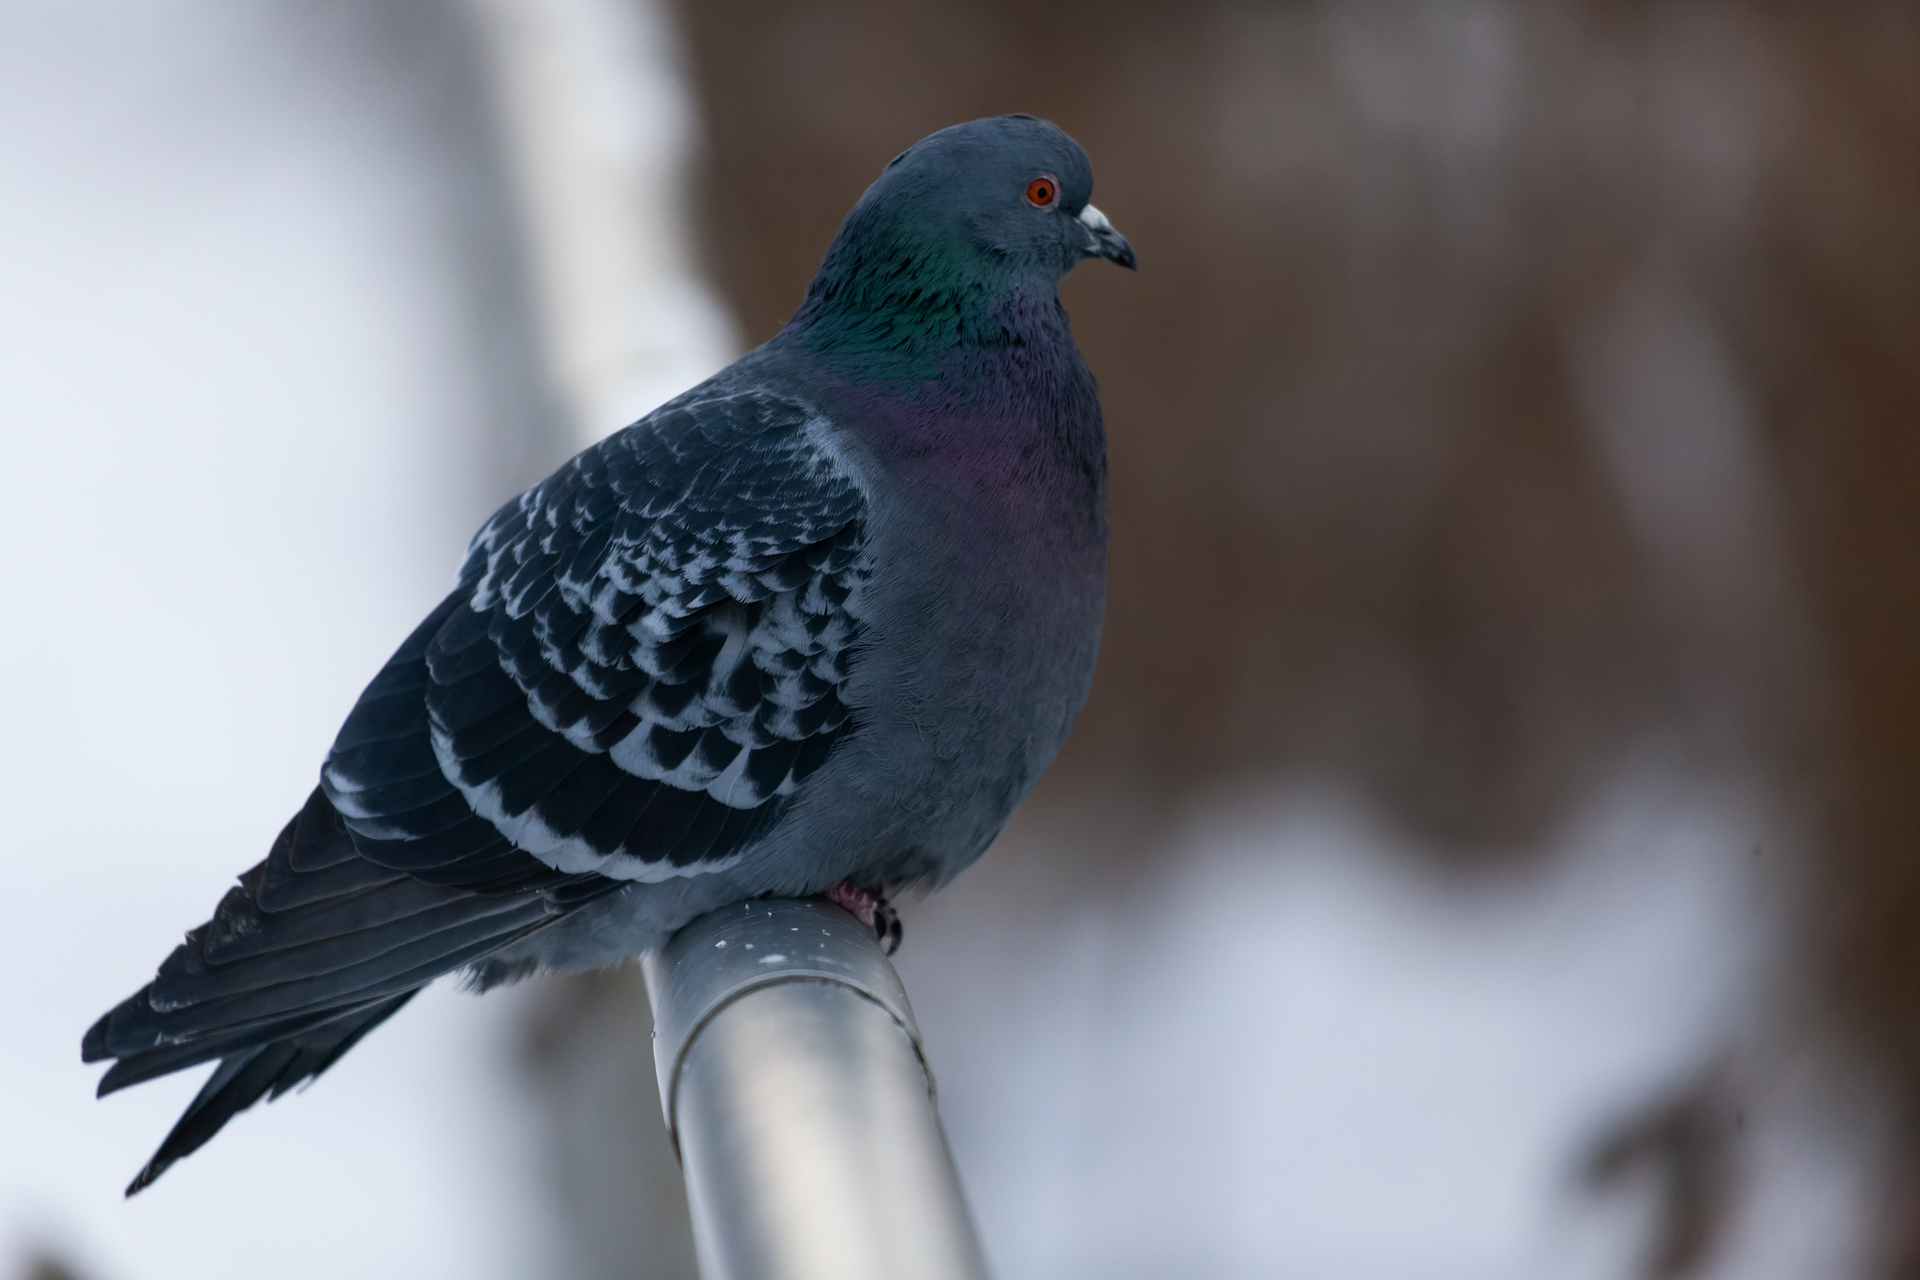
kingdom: Animalia
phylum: Chordata
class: Aves
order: Columbiformes
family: Columbidae
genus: Columba
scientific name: Columba livia
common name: Rock pigeon
